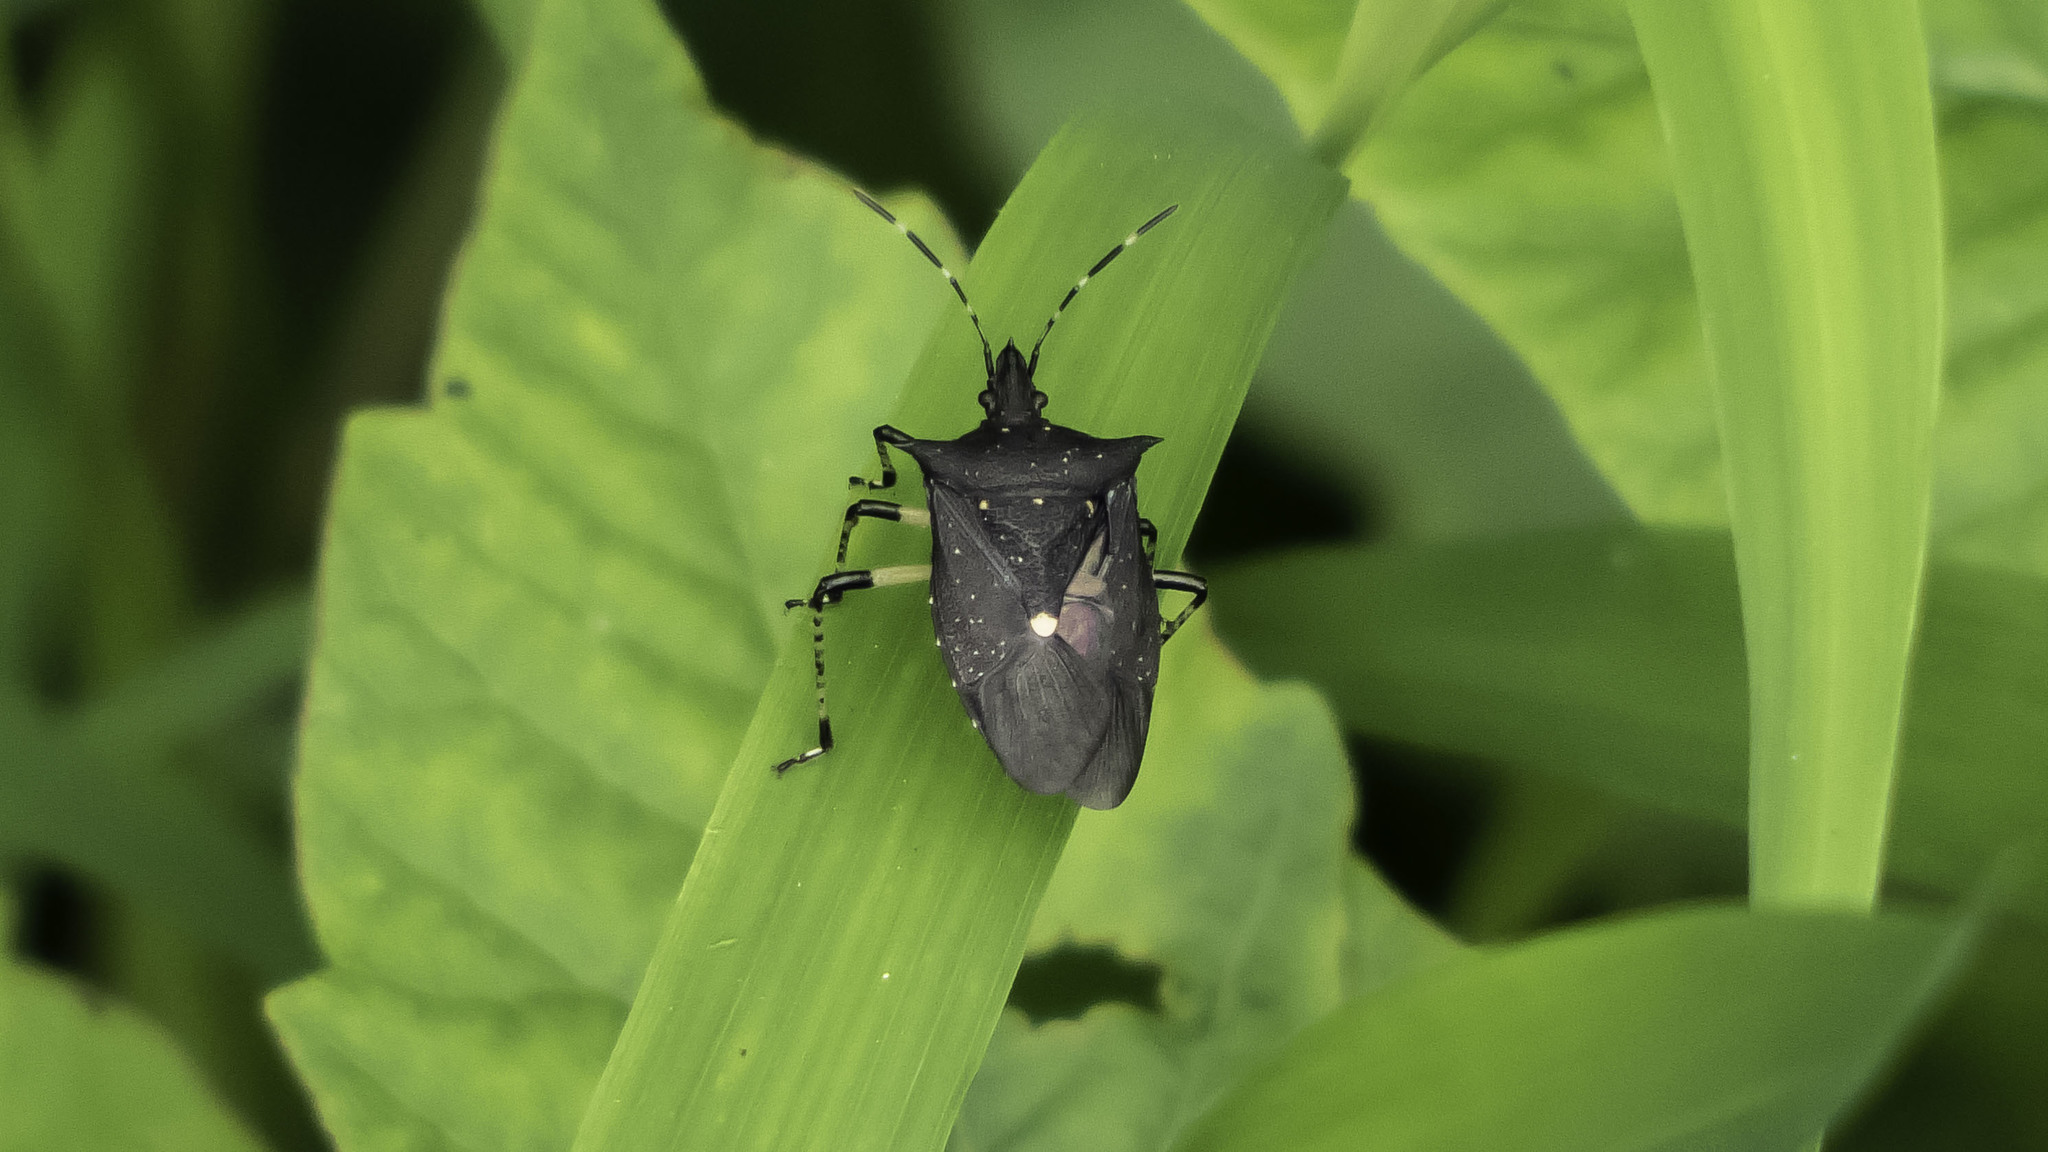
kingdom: Animalia
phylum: Arthropoda
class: Insecta
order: Hemiptera
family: Pentatomidae
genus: Proxys
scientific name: Proxys punctulatus
